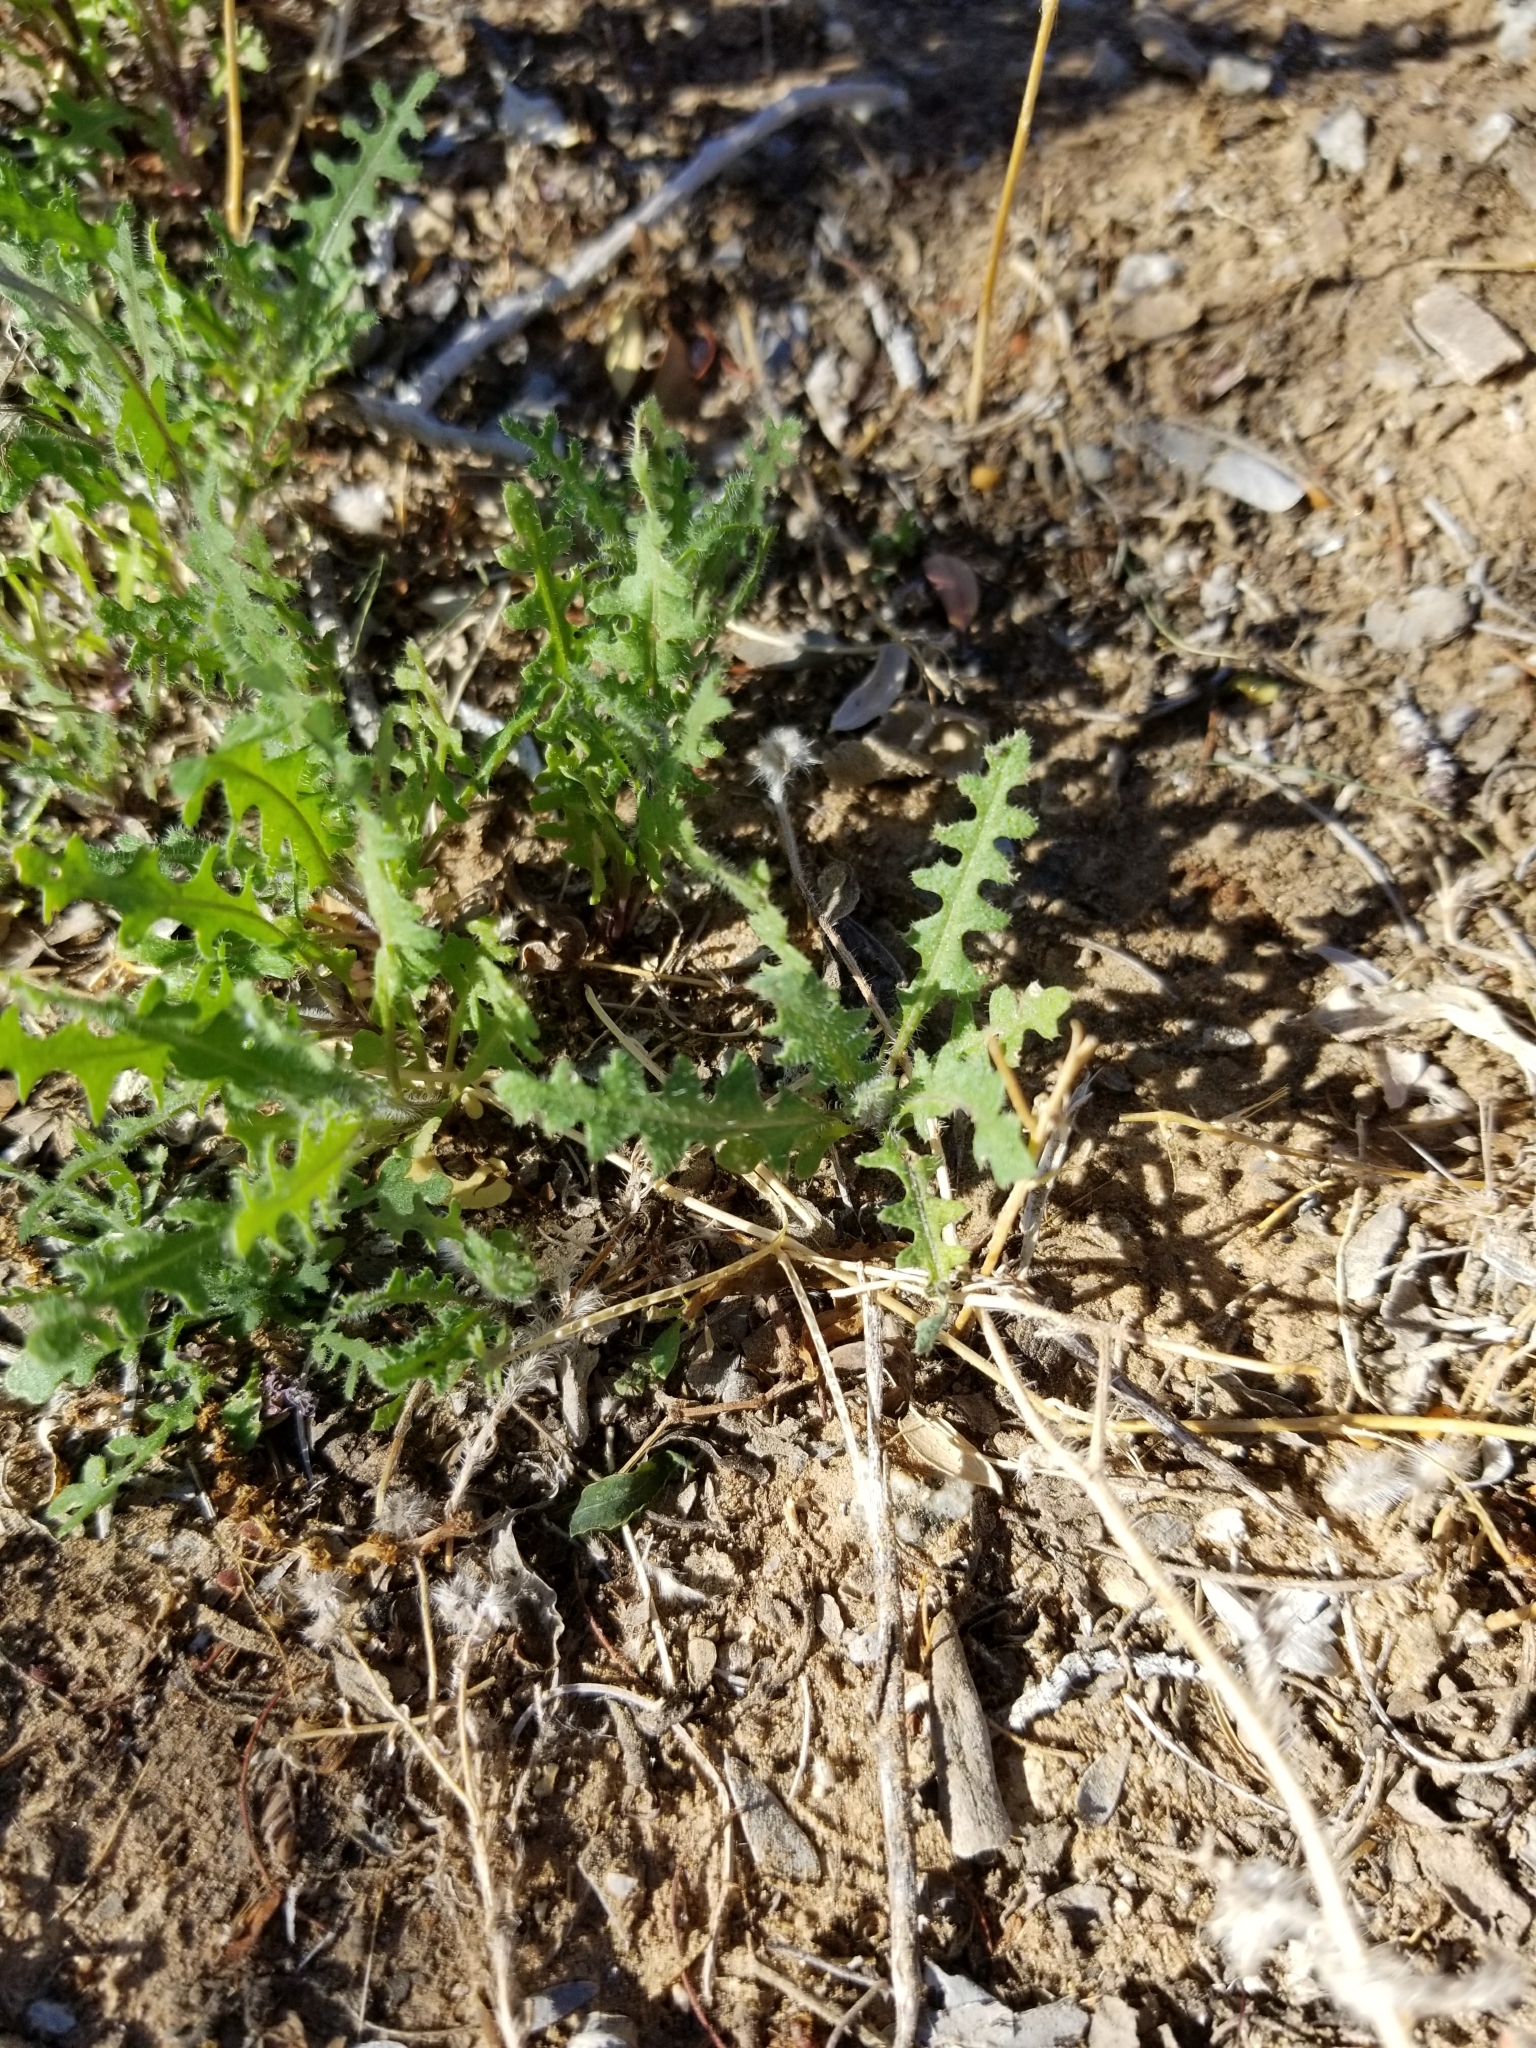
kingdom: Plantae
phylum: Tracheophyta
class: Magnoliopsida
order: Brassicales
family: Brassicaceae
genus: Streptanthus
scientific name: Streptanthus lasiophyllus
